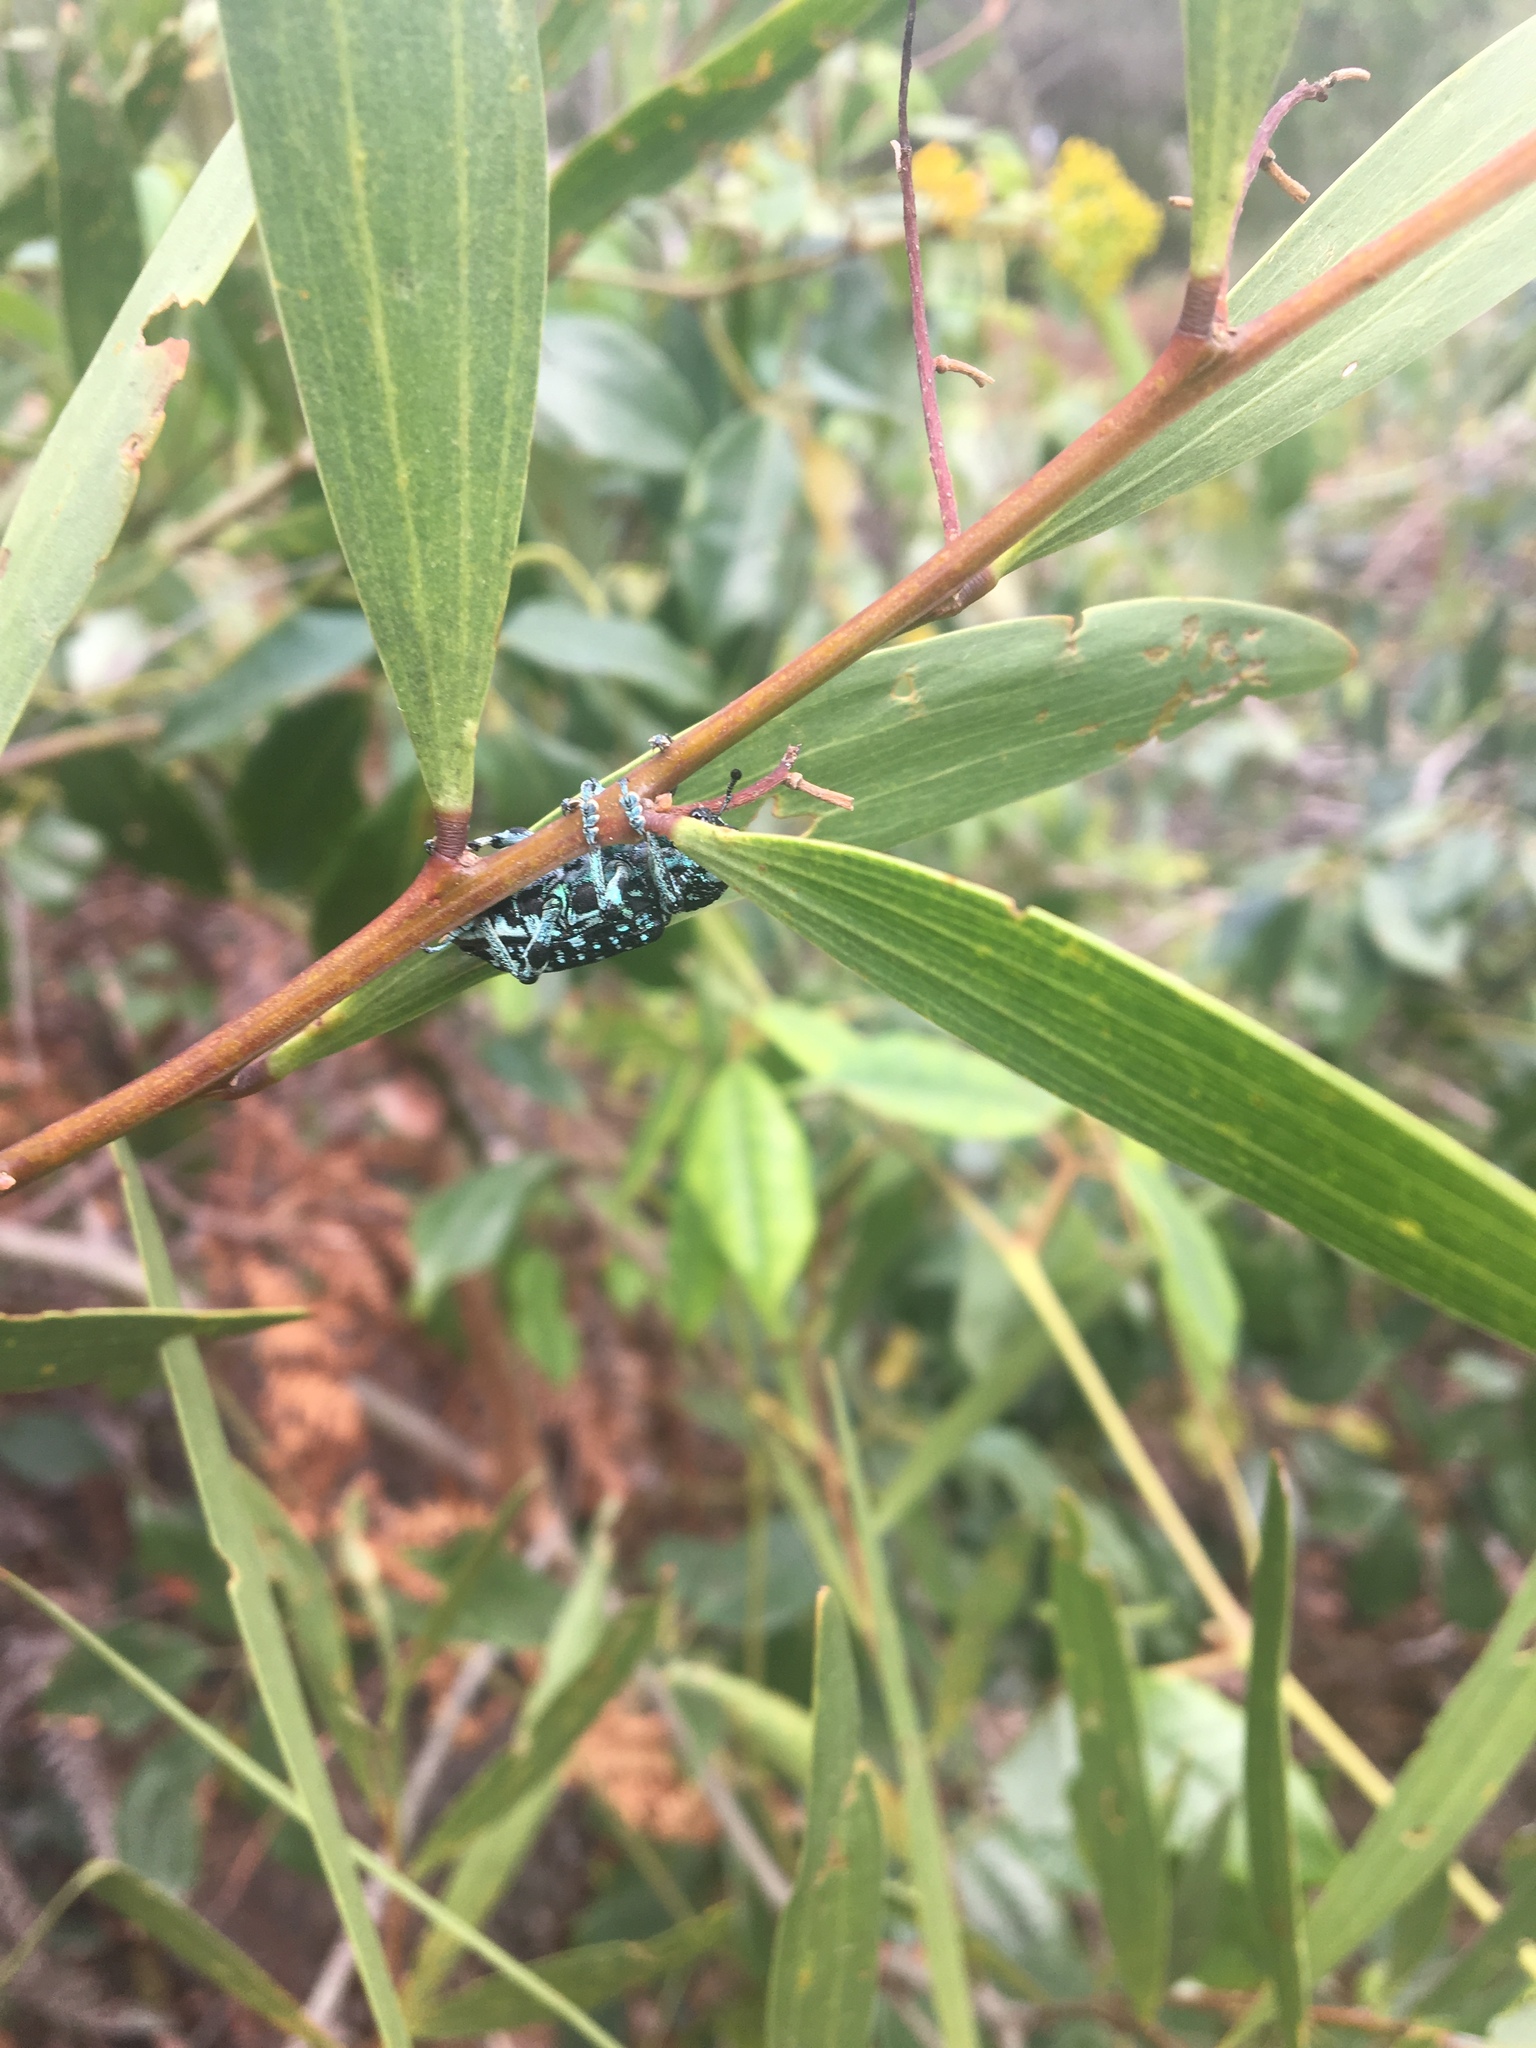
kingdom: Animalia
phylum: Arthropoda
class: Insecta
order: Coleoptera
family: Curculionidae
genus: Chrysolopus
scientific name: Chrysolopus spectabilis
